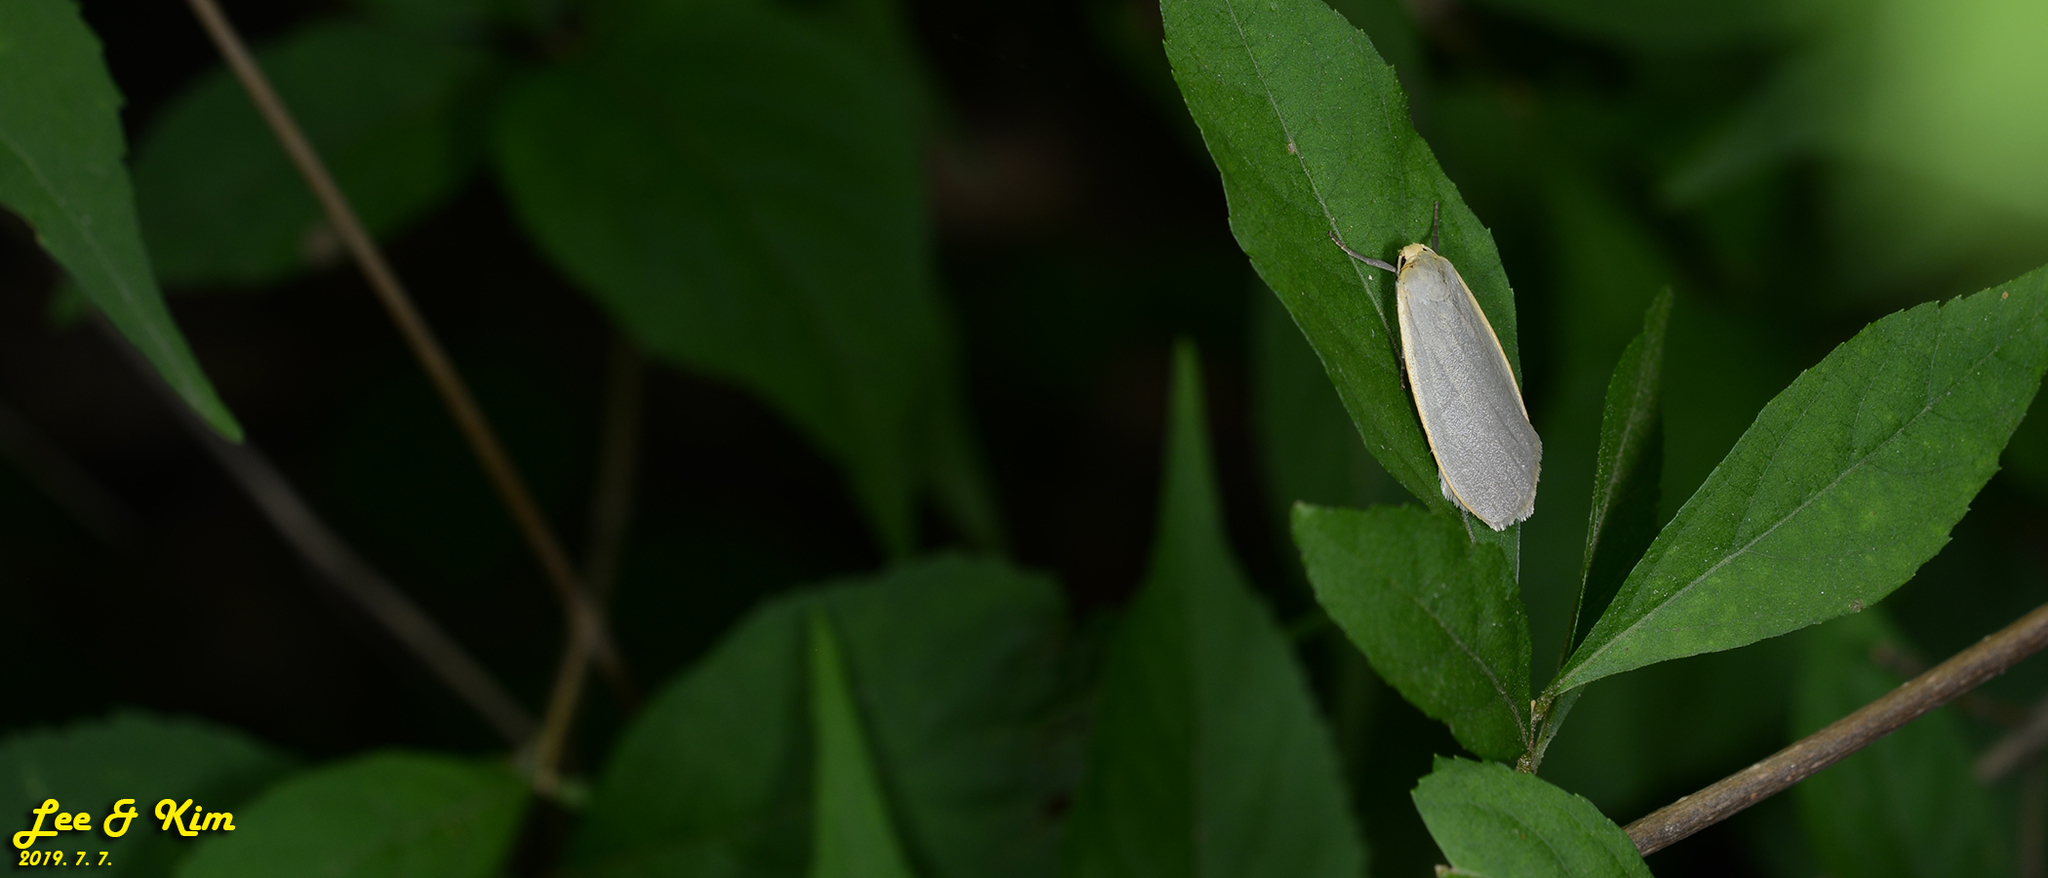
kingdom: Animalia
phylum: Arthropoda
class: Insecta
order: Lepidoptera
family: Erebidae
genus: Katha
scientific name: Katha depressa
